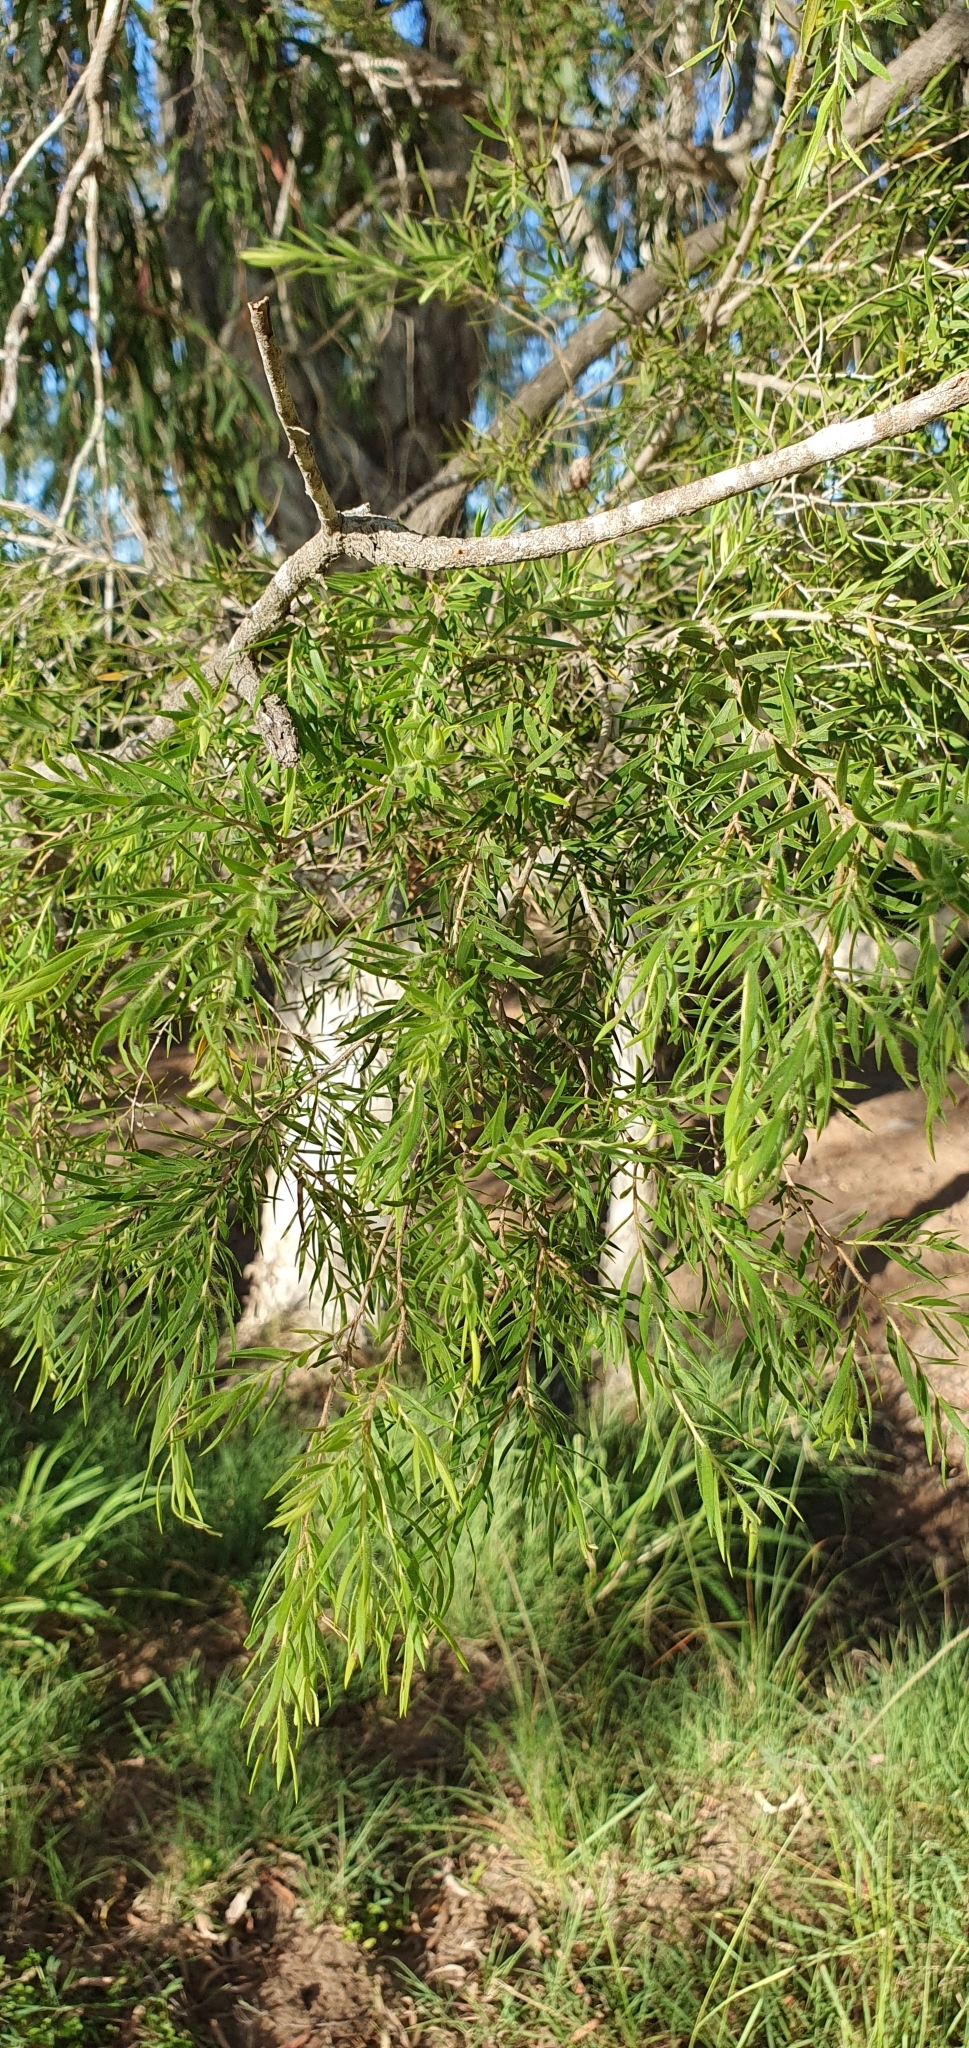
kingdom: Plantae
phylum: Tracheophyta
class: Magnoliopsida
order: Myrtales
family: Myrtaceae
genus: Melaleuca
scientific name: Melaleuca bracteata
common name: Black tea-tree
